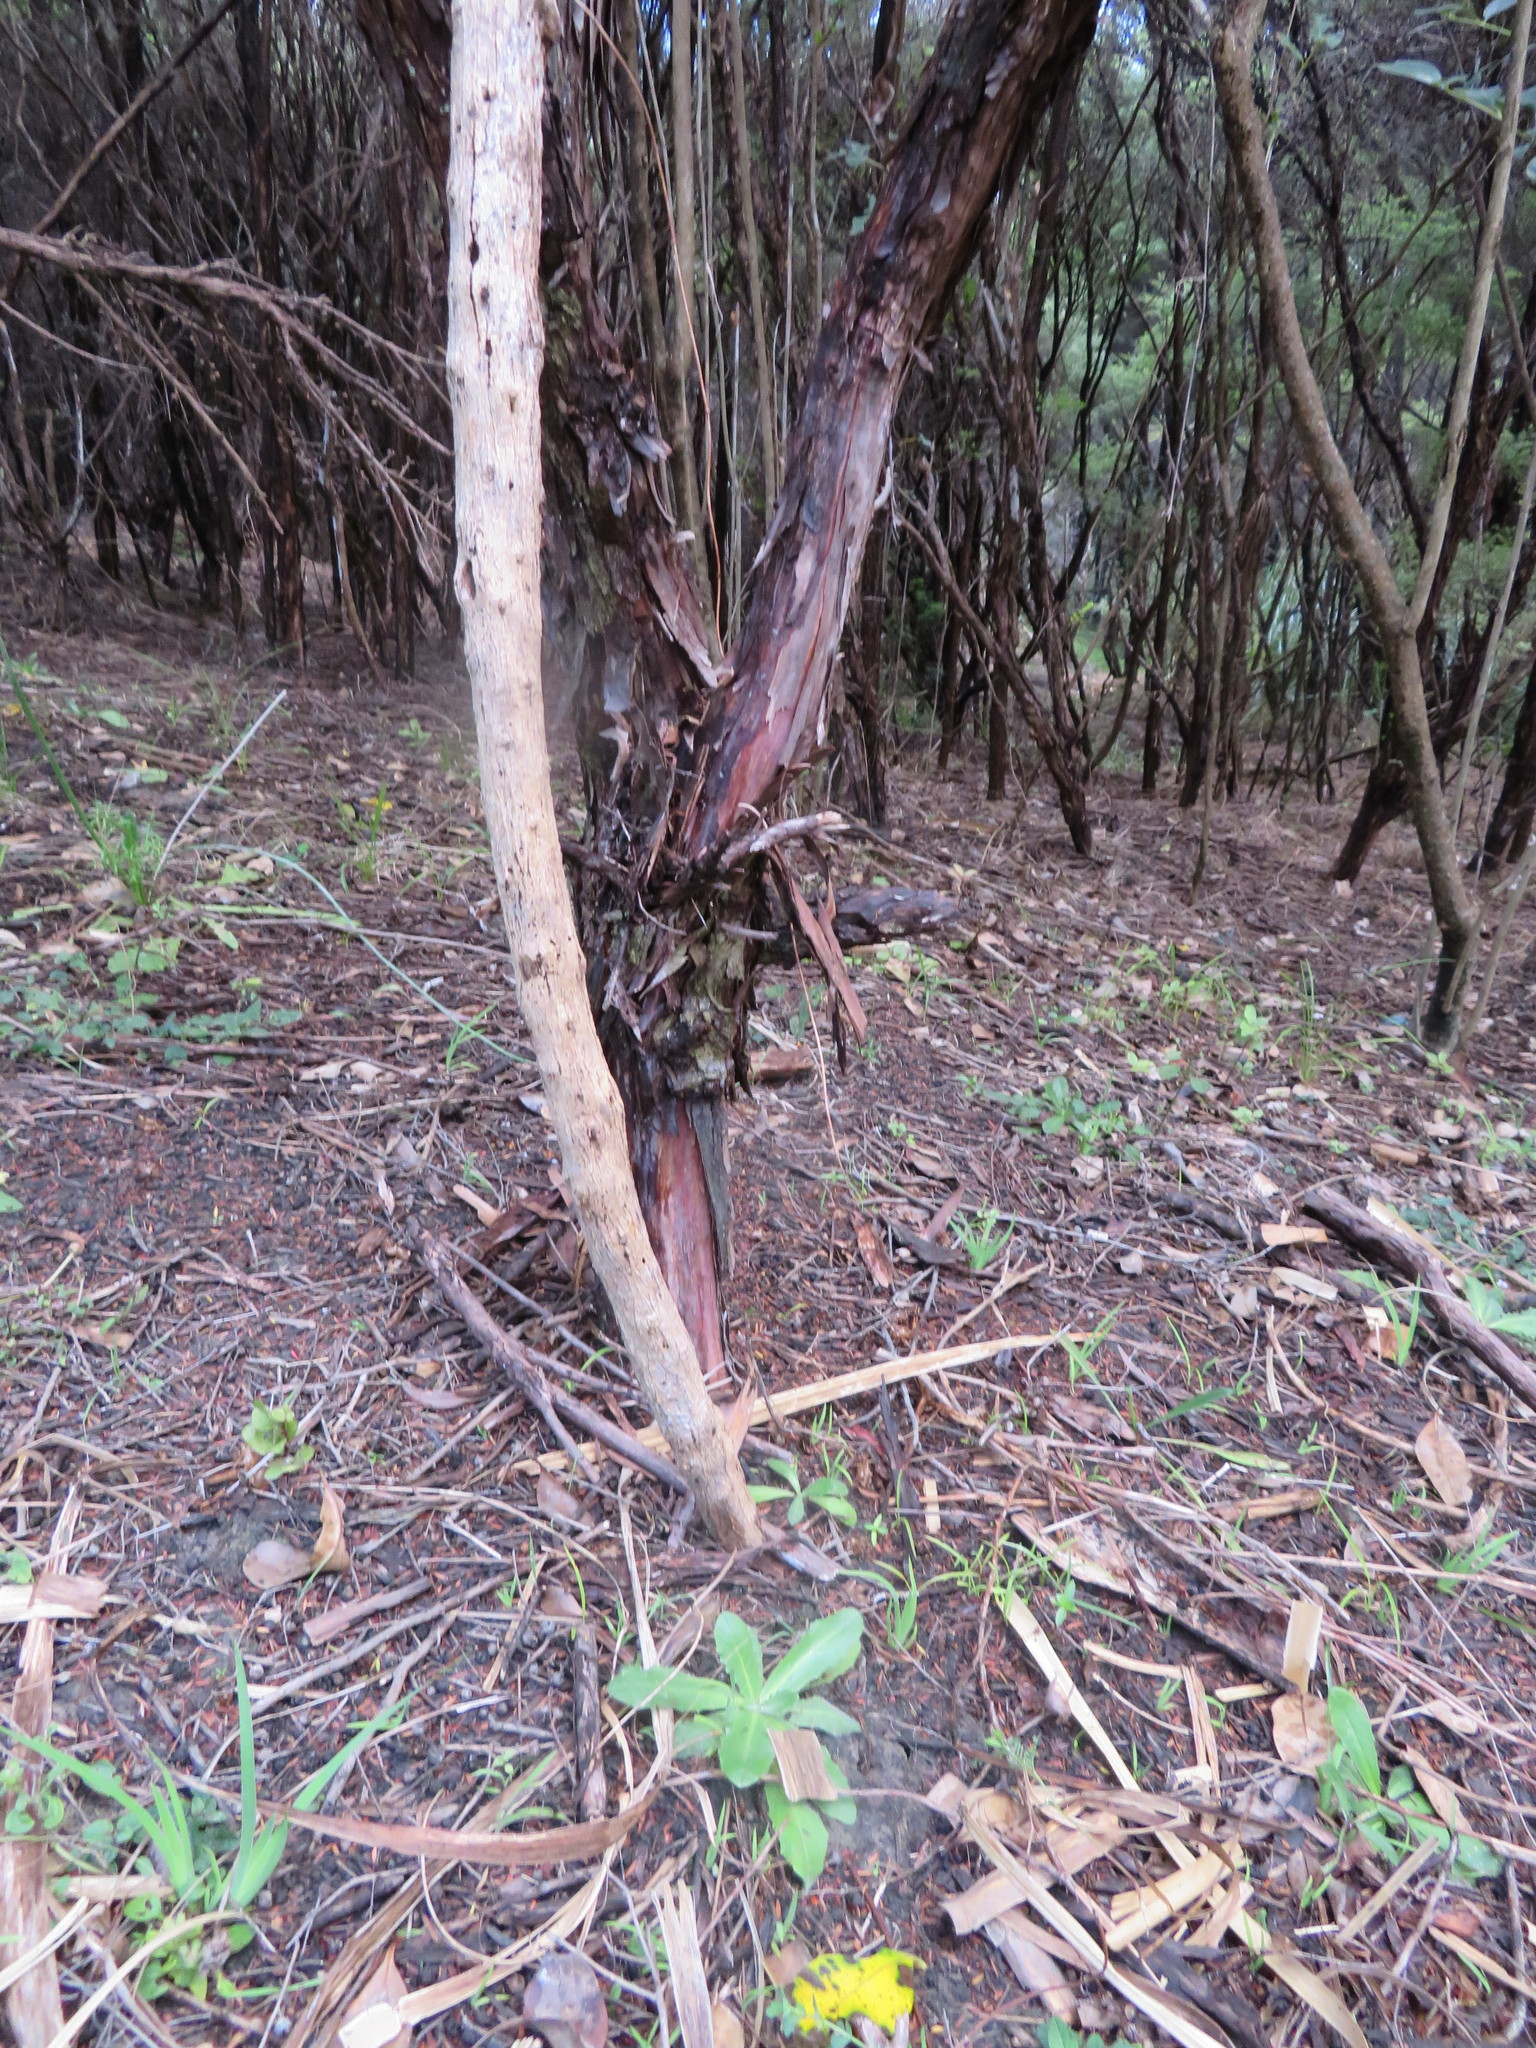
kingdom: Plantae
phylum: Tracheophyta
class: Magnoliopsida
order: Ericales
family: Primulaceae
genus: Myrsine
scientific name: Myrsine australis
